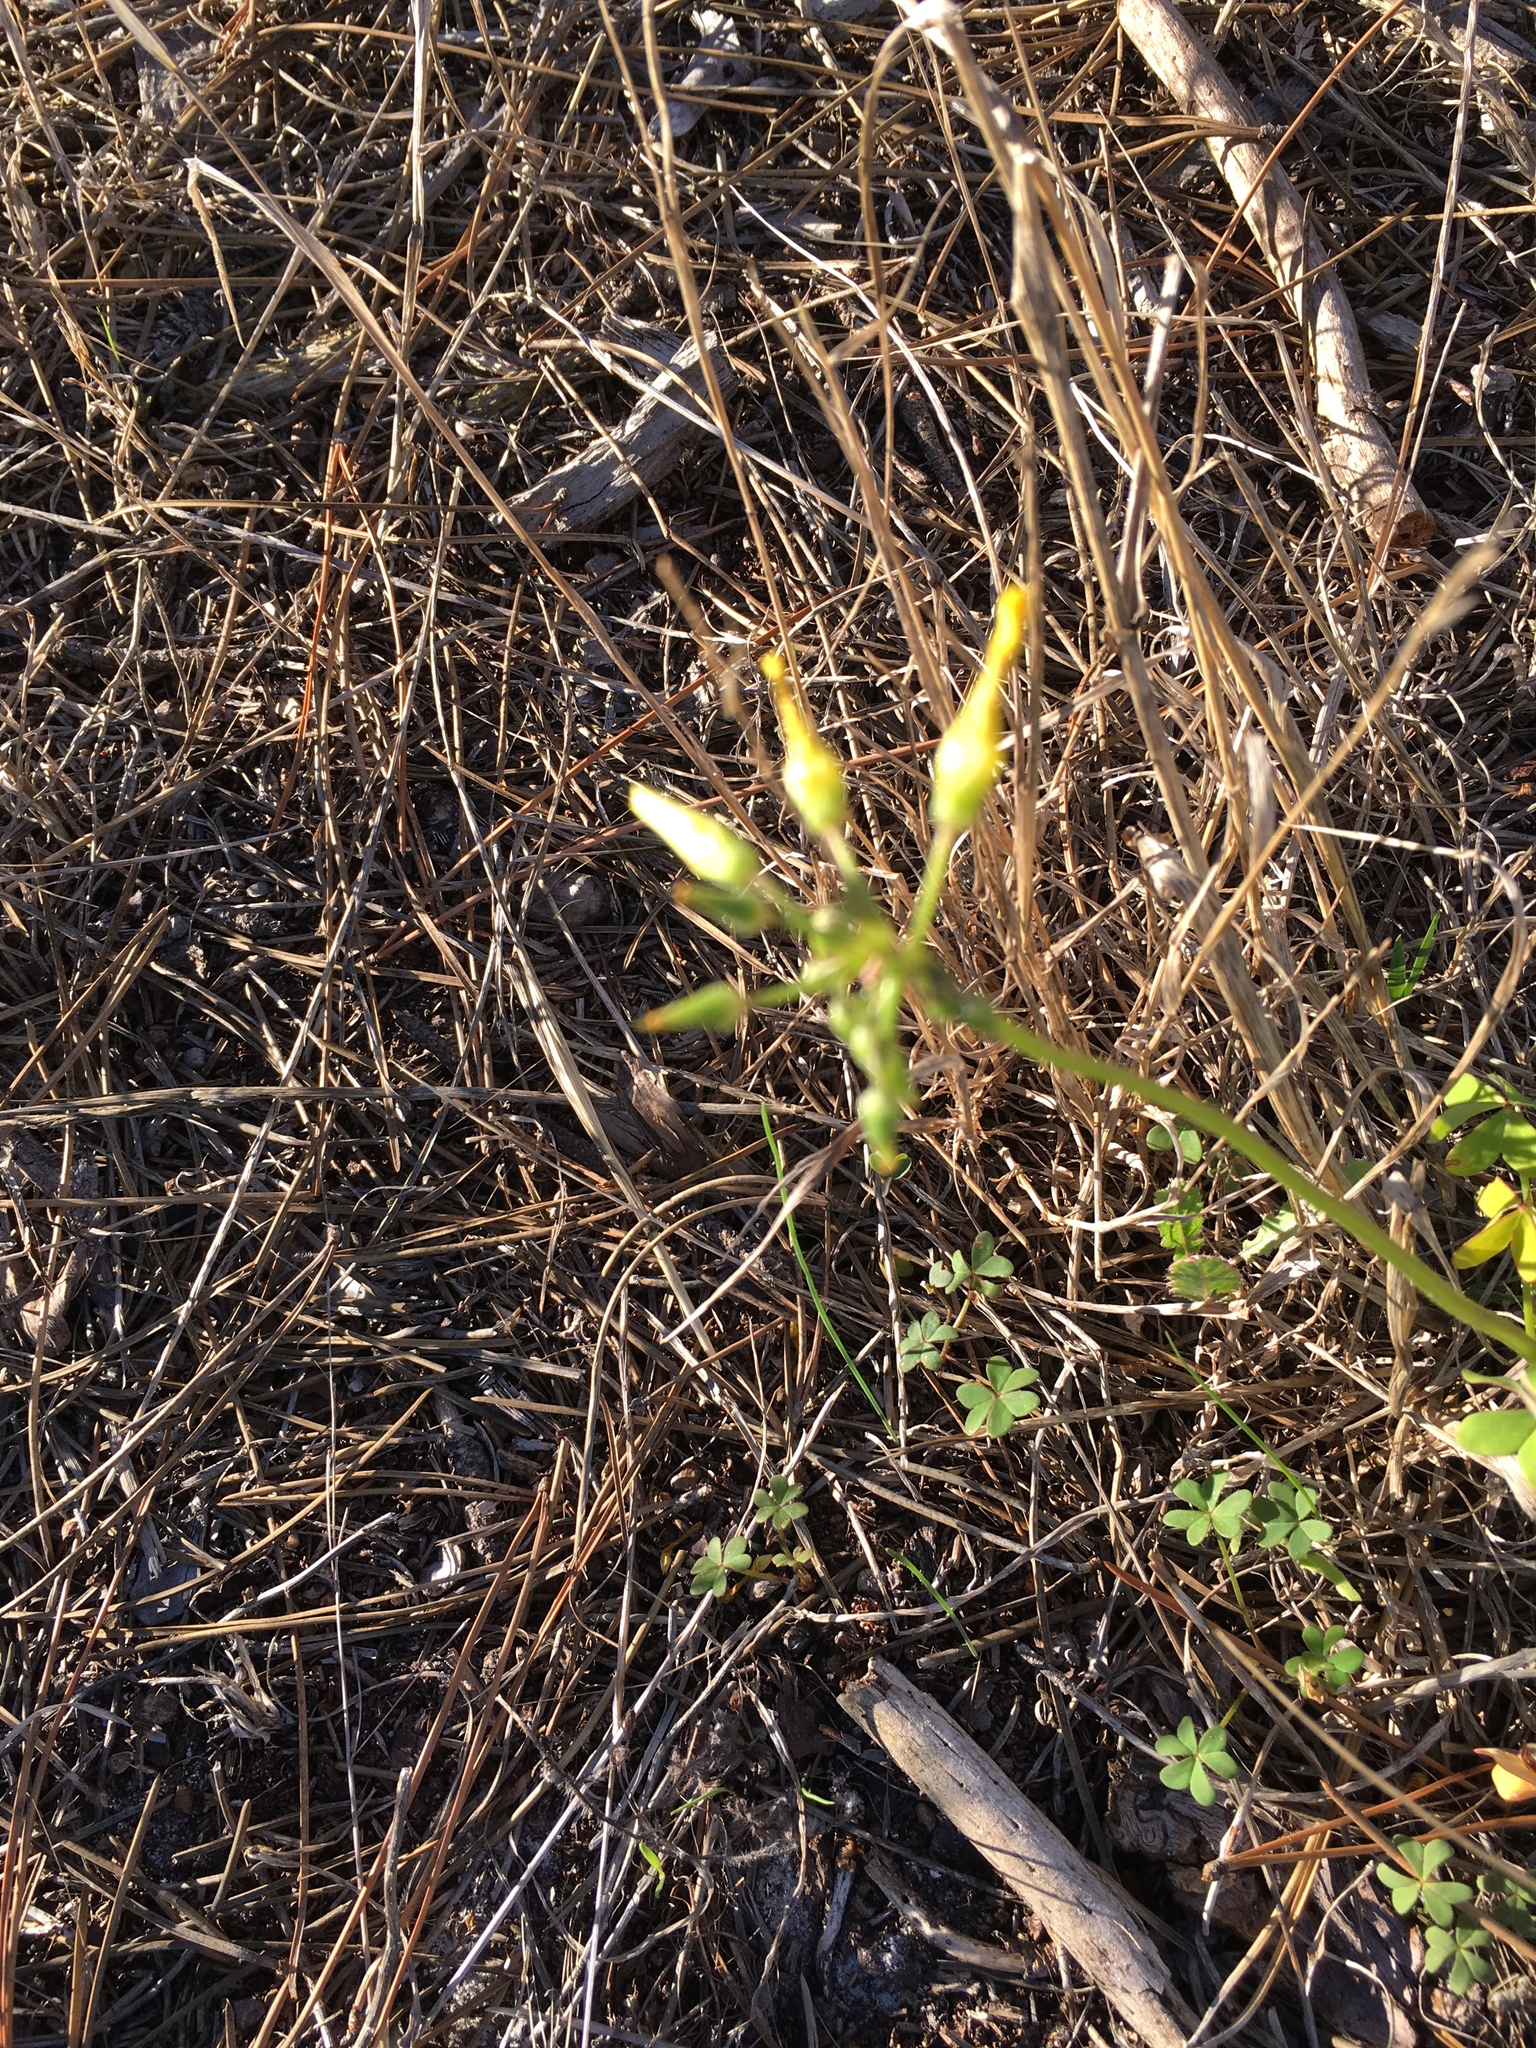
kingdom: Plantae
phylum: Tracheophyta
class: Magnoliopsida
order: Oxalidales
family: Oxalidaceae
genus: Oxalis
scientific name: Oxalis pes-caprae
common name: Bermuda-buttercup
